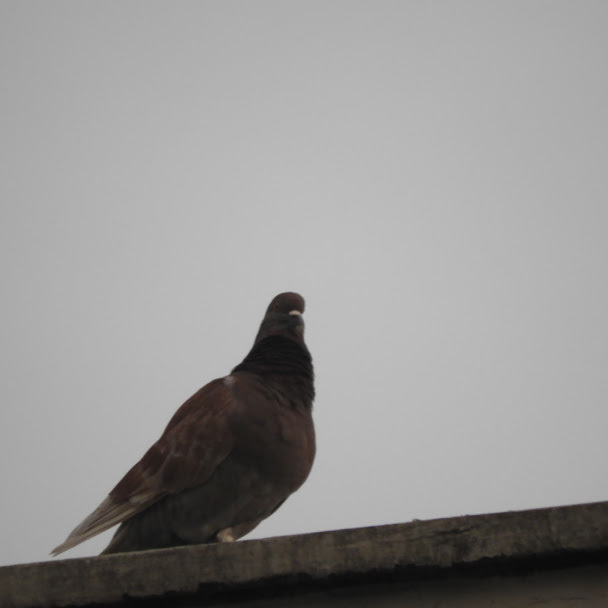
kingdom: Animalia
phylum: Chordata
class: Aves
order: Columbiformes
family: Columbidae
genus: Columba
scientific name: Columba livia
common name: Rock pigeon
